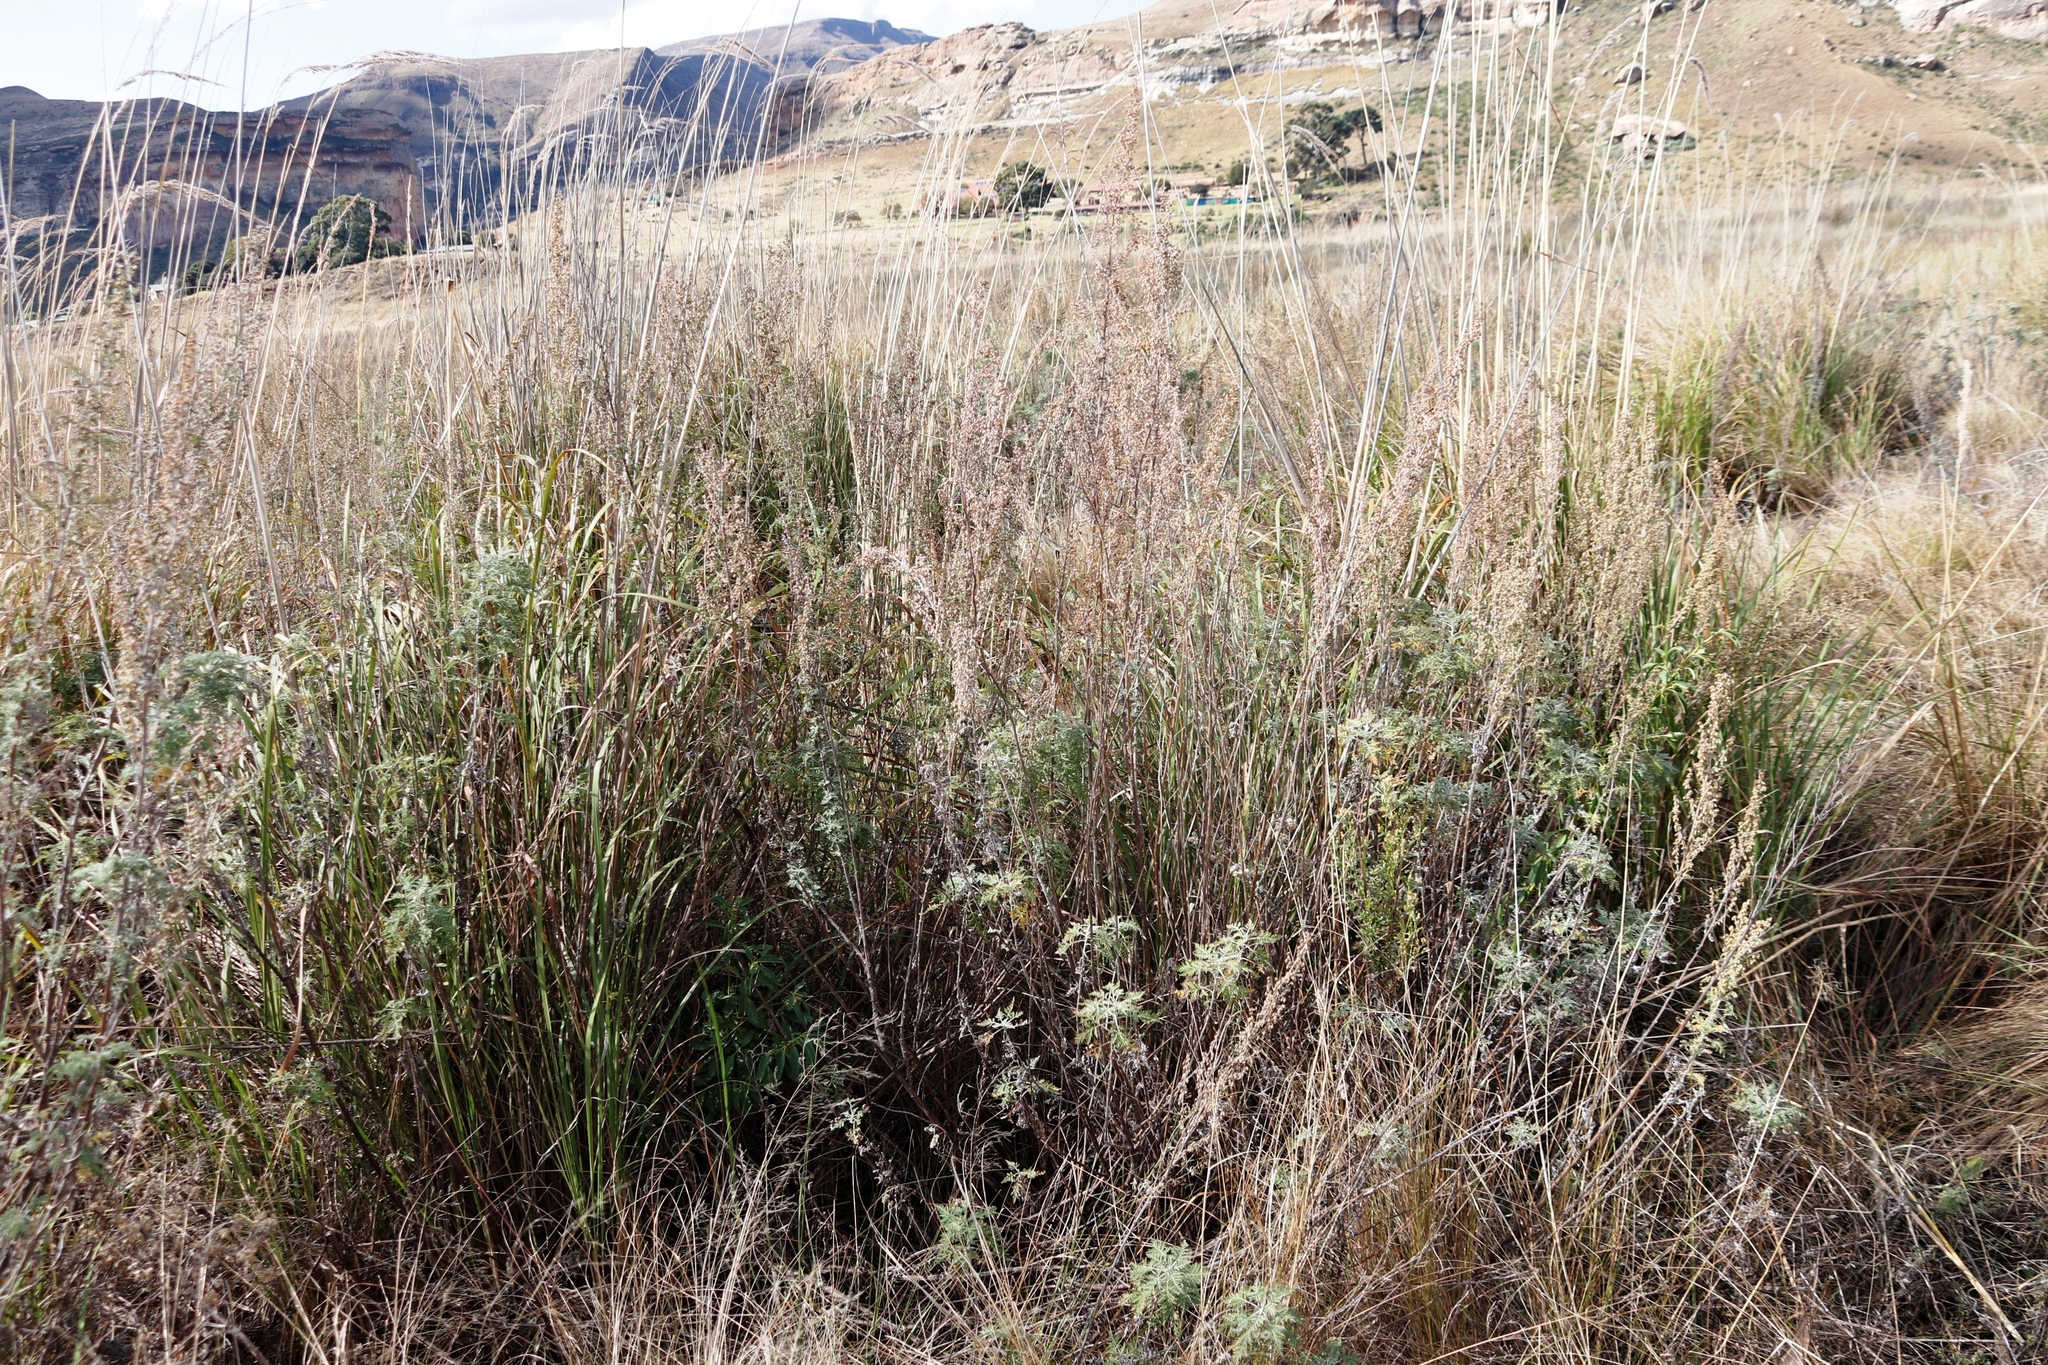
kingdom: Plantae
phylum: Tracheophyta
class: Magnoliopsida
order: Asterales
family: Asteraceae
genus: Artemisia
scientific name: Artemisia afra
